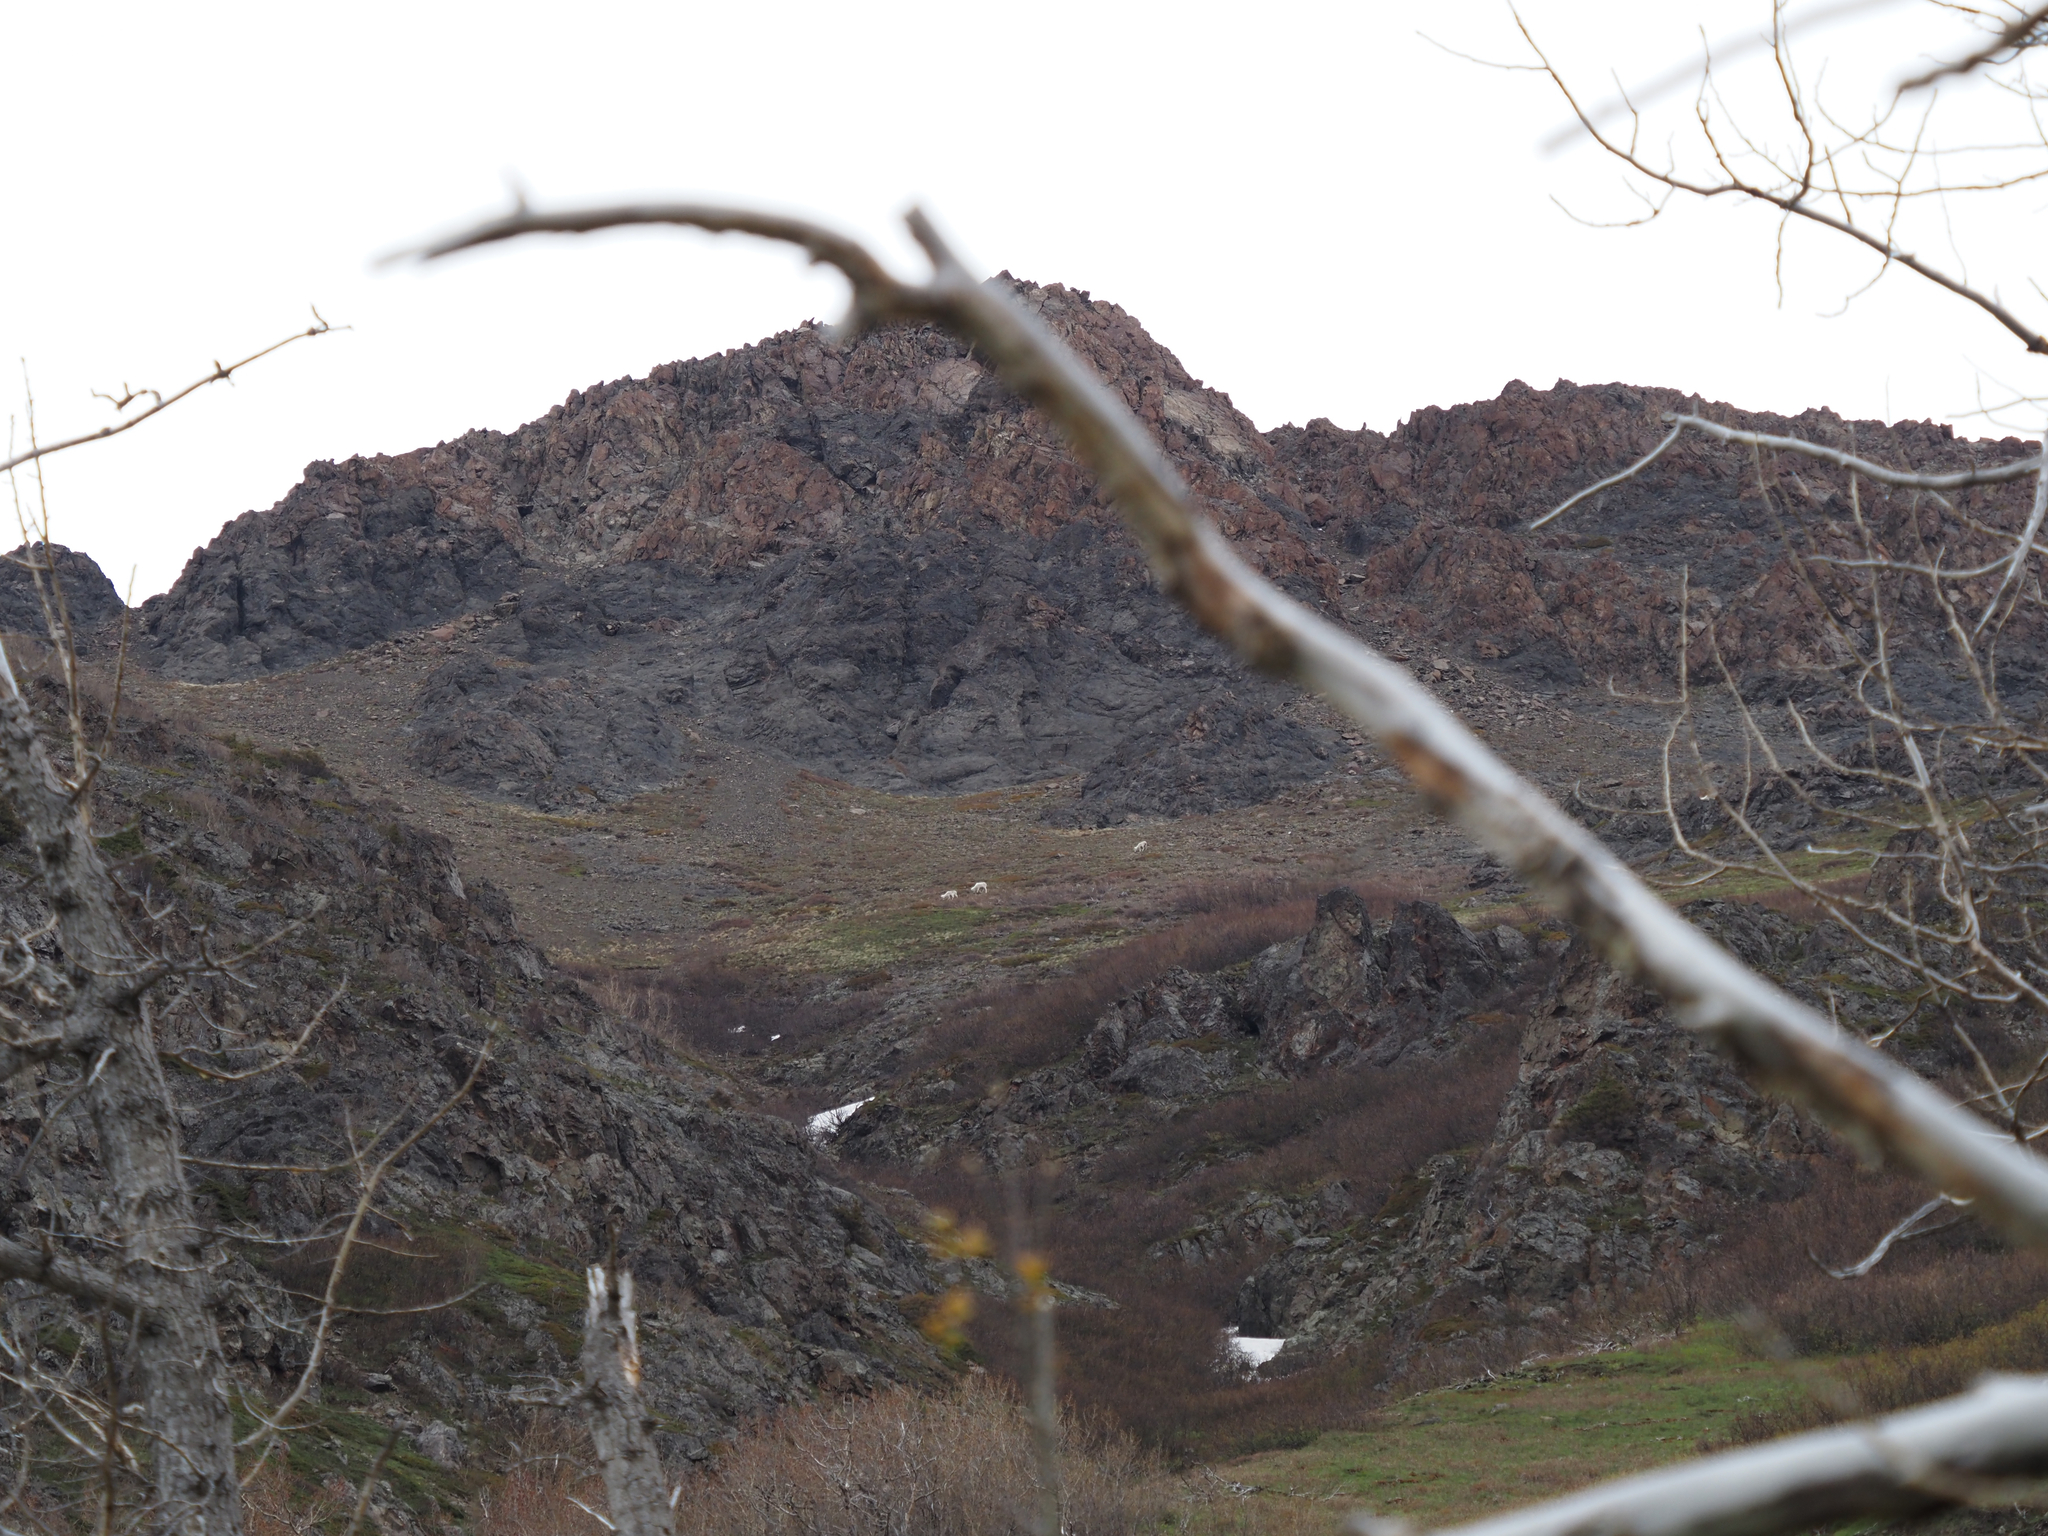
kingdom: Animalia
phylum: Chordata
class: Mammalia
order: Artiodactyla
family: Bovidae
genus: Ovis
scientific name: Ovis dalli
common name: Dall's sheep
